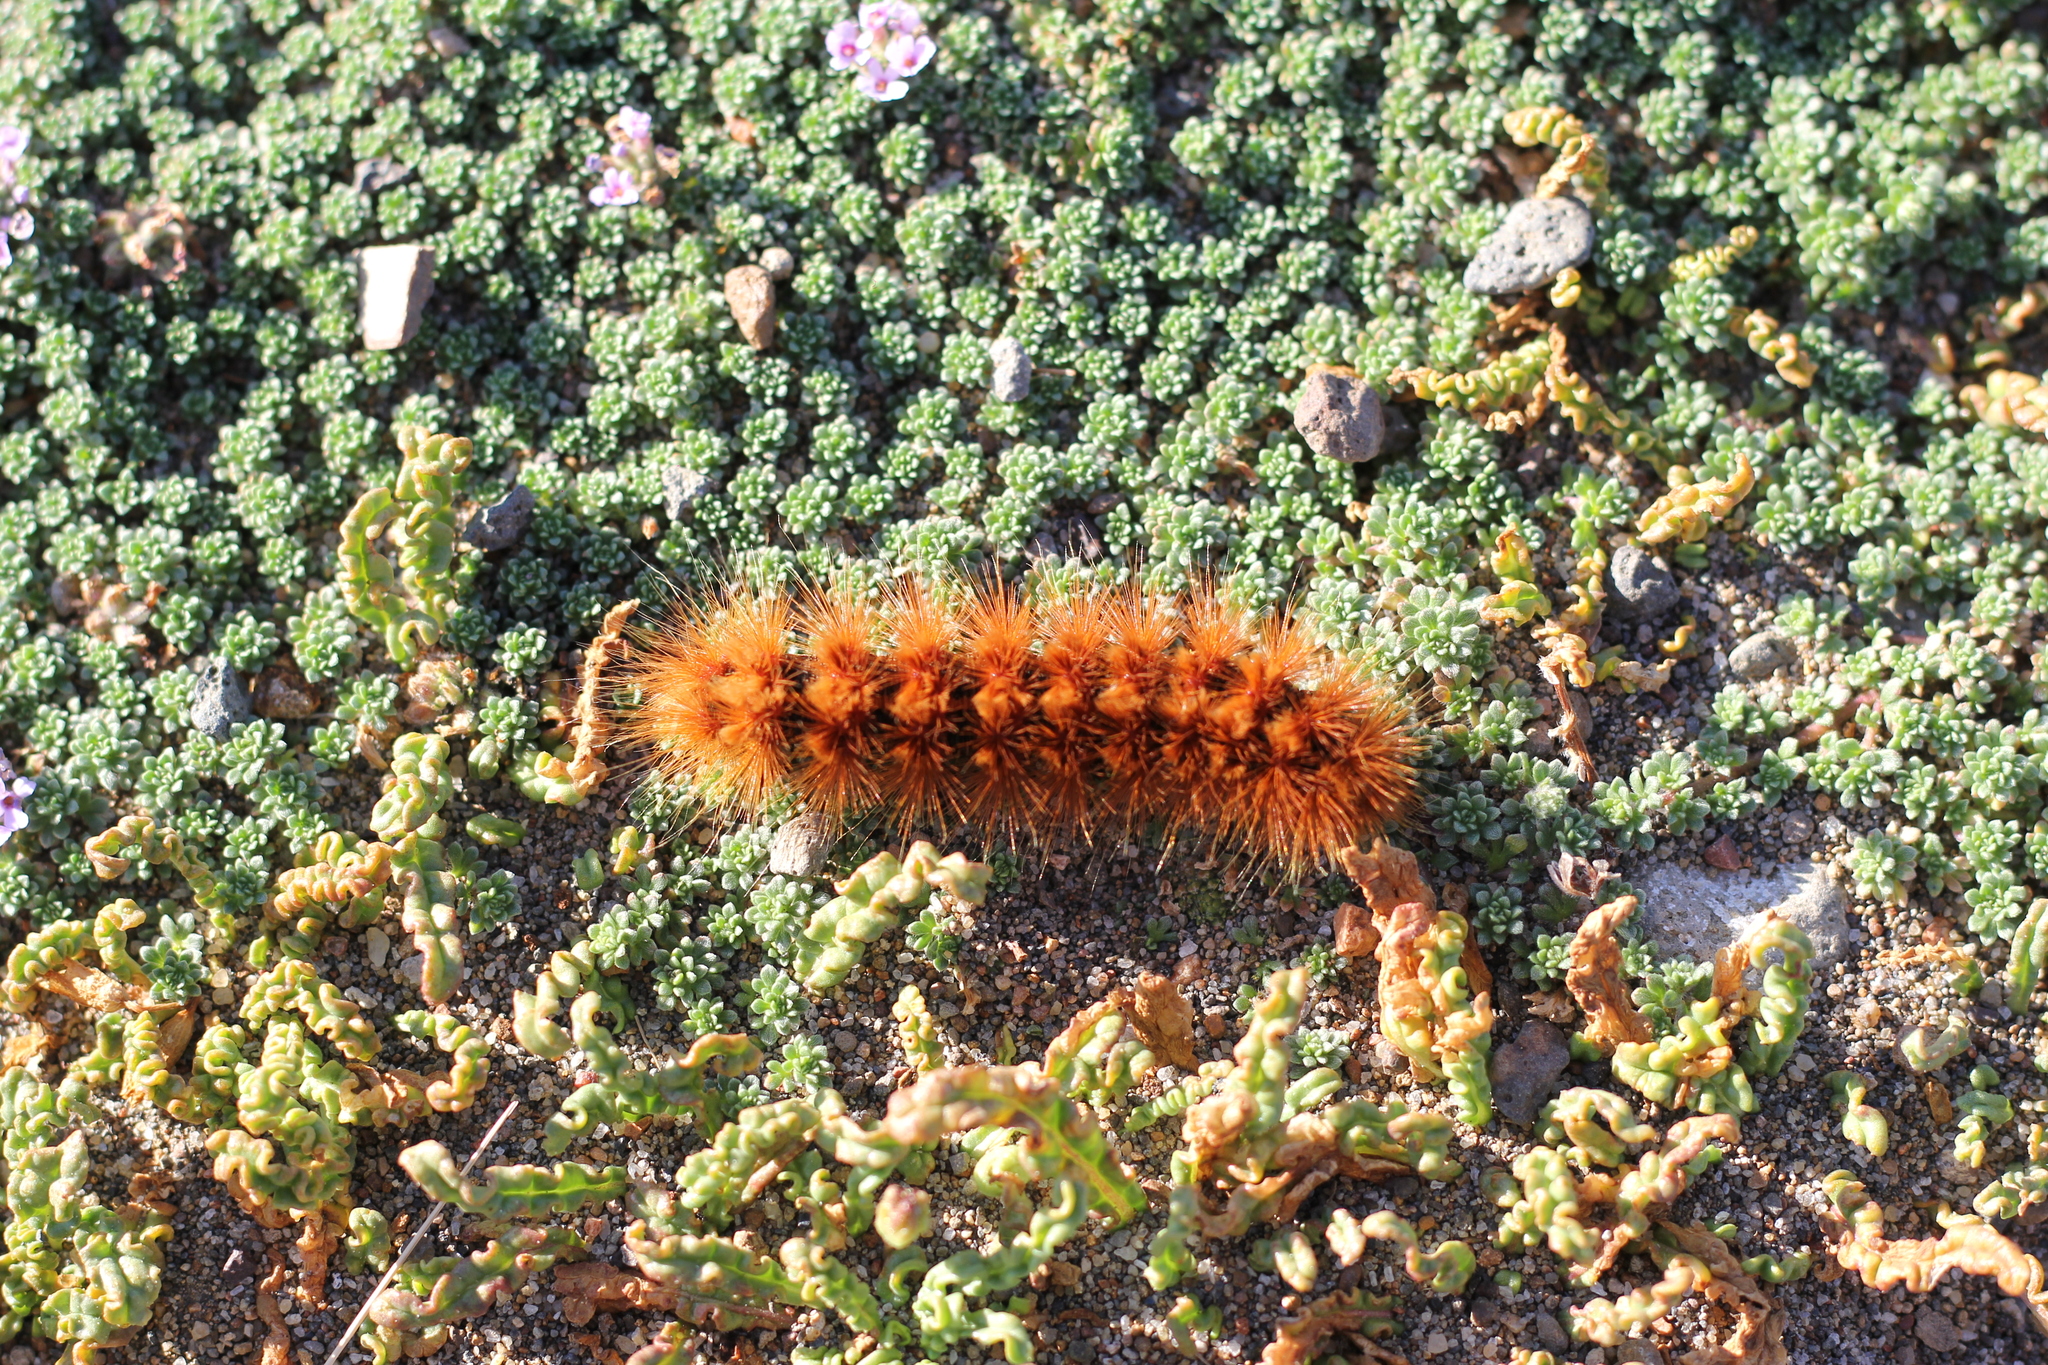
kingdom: Animalia
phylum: Arthropoda
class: Insecta
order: Lepidoptera
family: Erebidae
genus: Paracles
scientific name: Paracles severa
